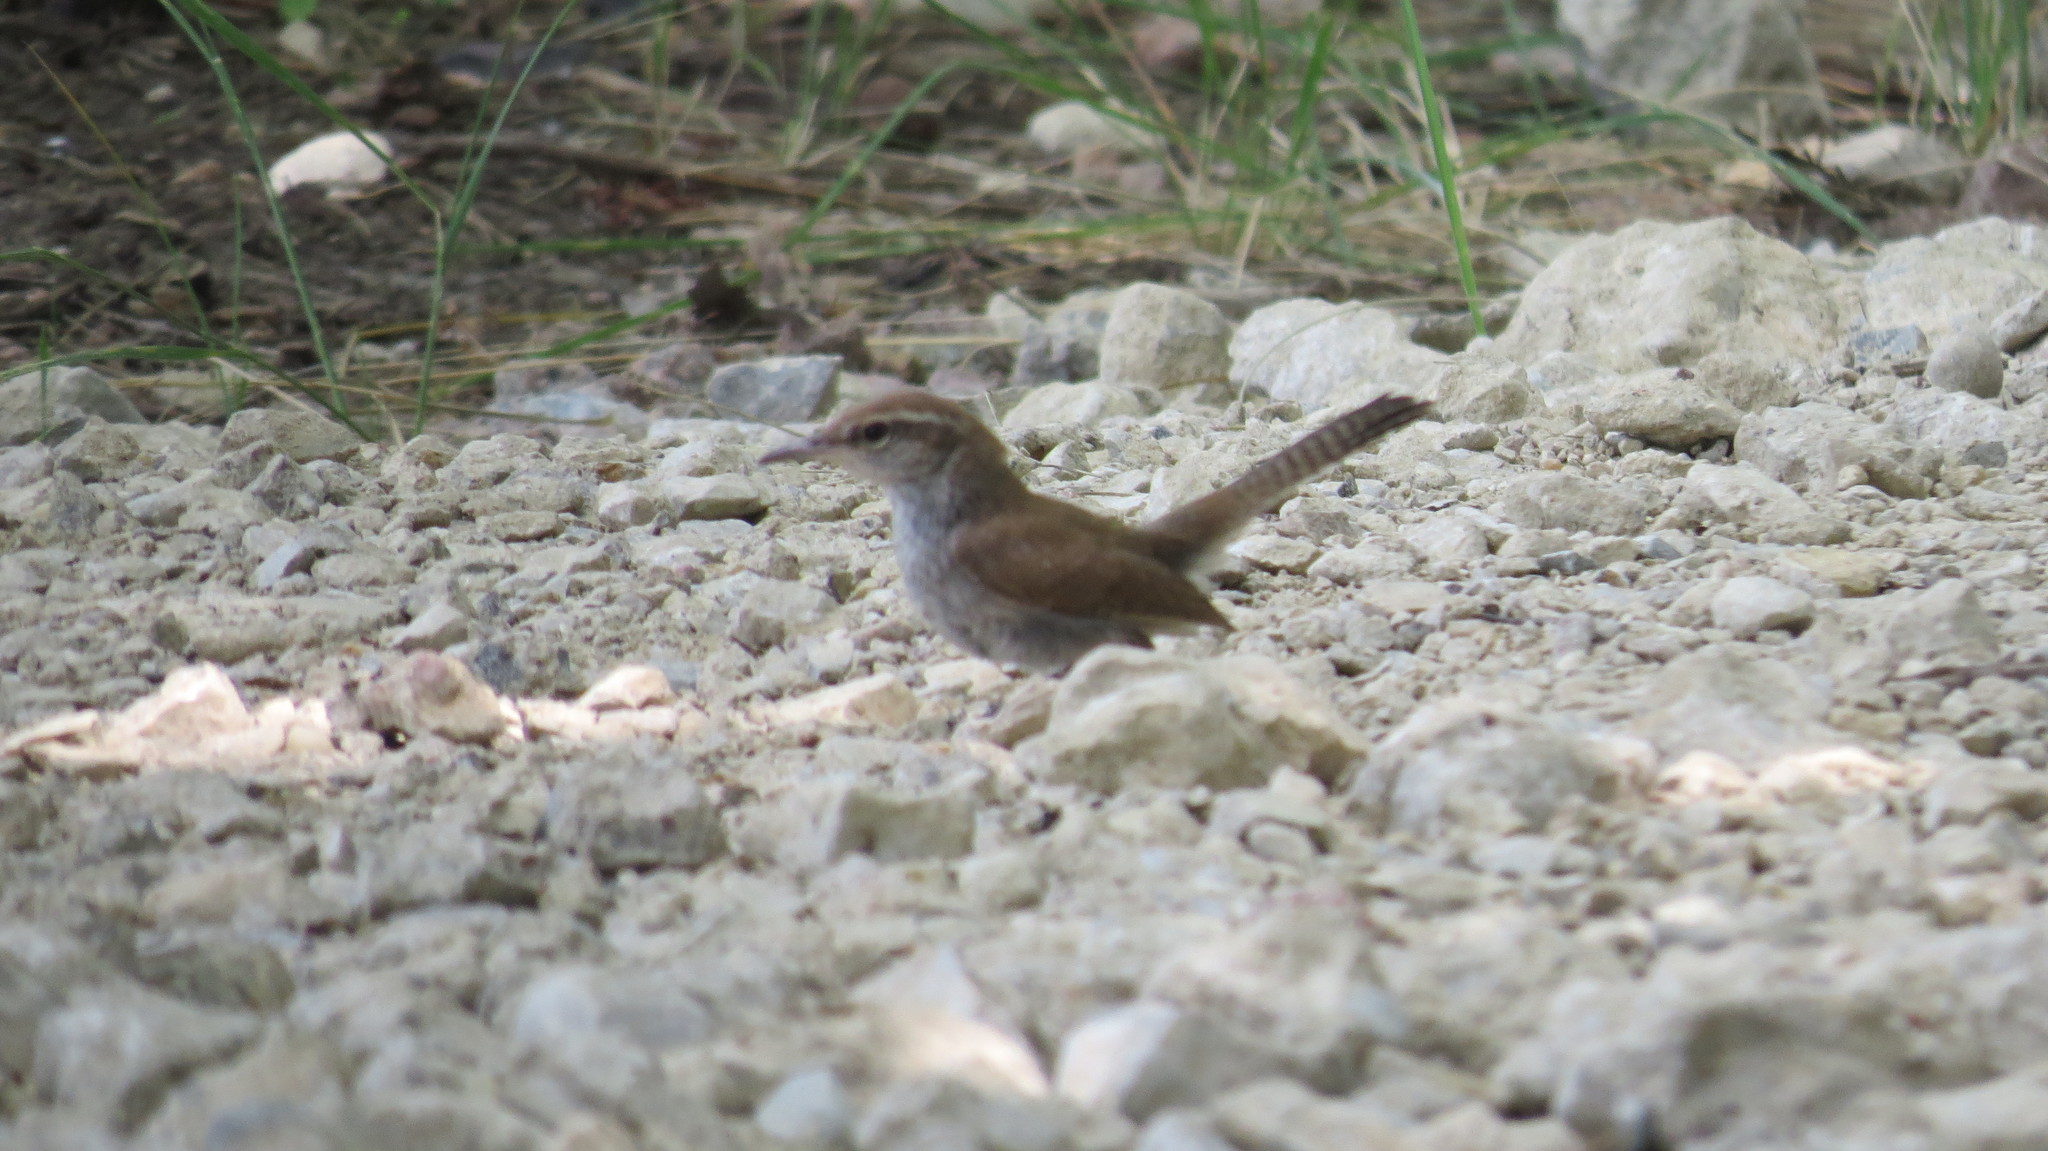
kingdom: Animalia
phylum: Chordata
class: Aves
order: Passeriformes
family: Troglodytidae
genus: Thryomanes
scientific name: Thryomanes bewickii
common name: Bewick's wren
